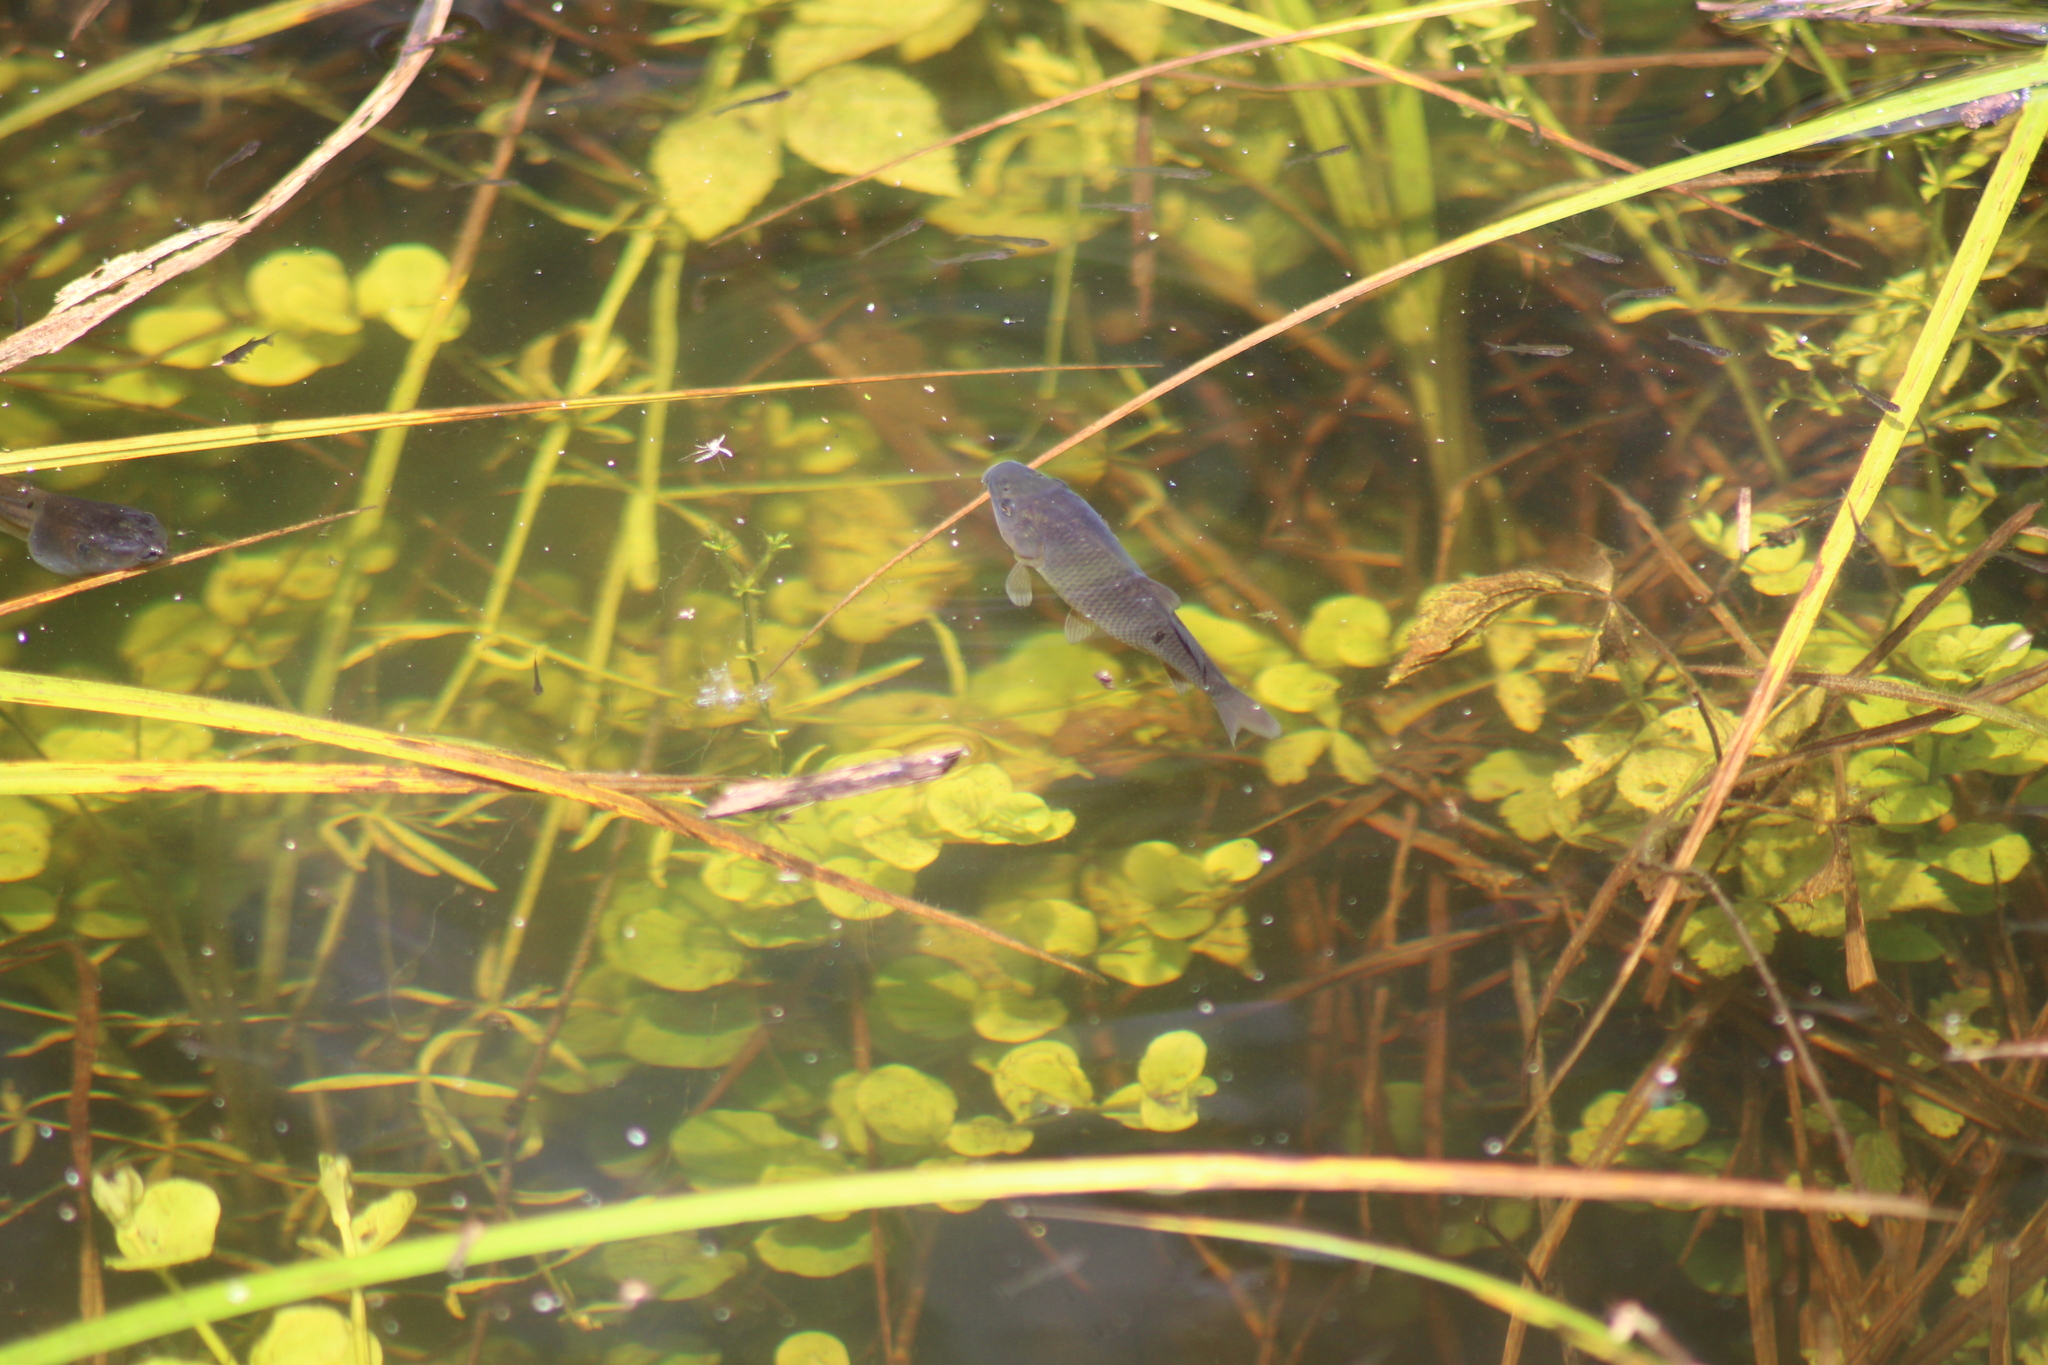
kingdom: Animalia
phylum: Chordata
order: Cypriniformes
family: Cyprinidae
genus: Cyprinus
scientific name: Cyprinus carpio
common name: Common carp
